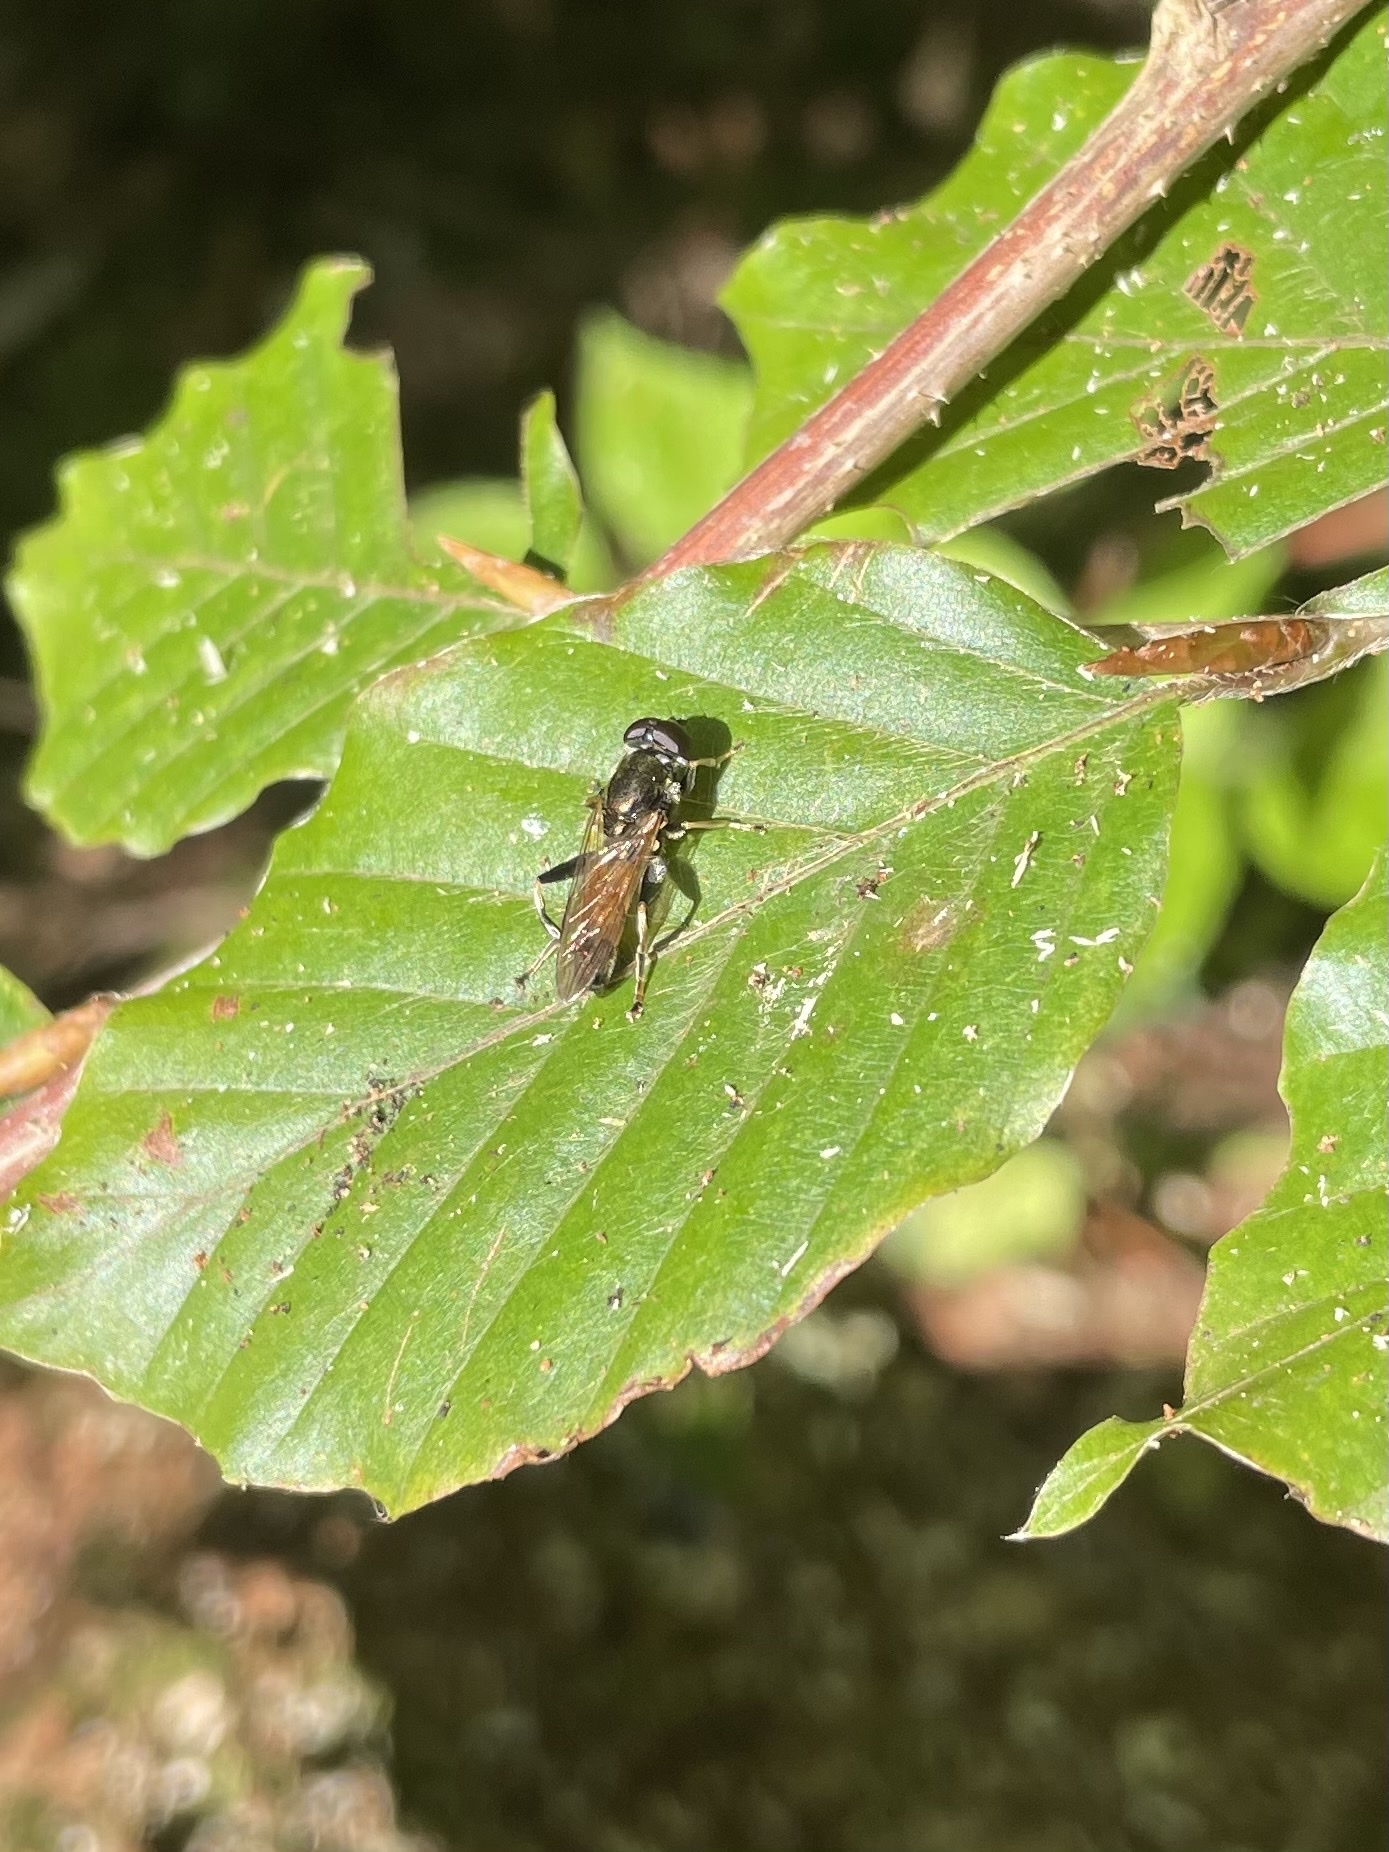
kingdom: Animalia
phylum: Arthropoda
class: Insecta
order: Diptera
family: Syrphidae
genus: Xylota
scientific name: Xylota segnis
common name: Brown-toed forest fly
